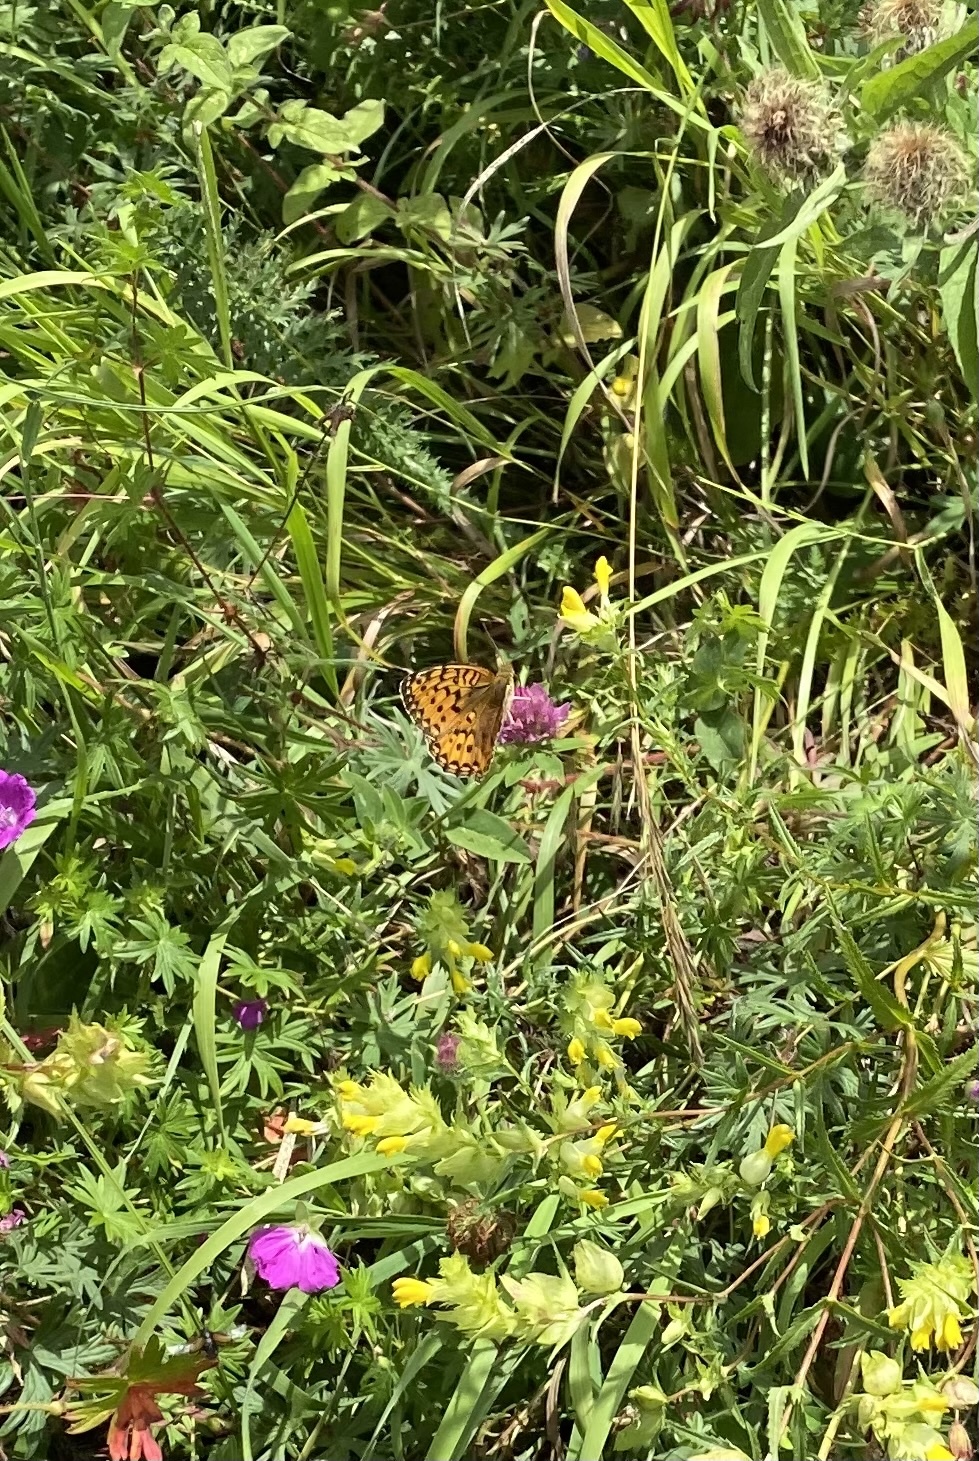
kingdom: Animalia
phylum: Arthropoda
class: Insecta
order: Lepidoptera
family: Nymphalidae
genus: Speyeria
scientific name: Speyeria aglaja
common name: Dark green fritillary
